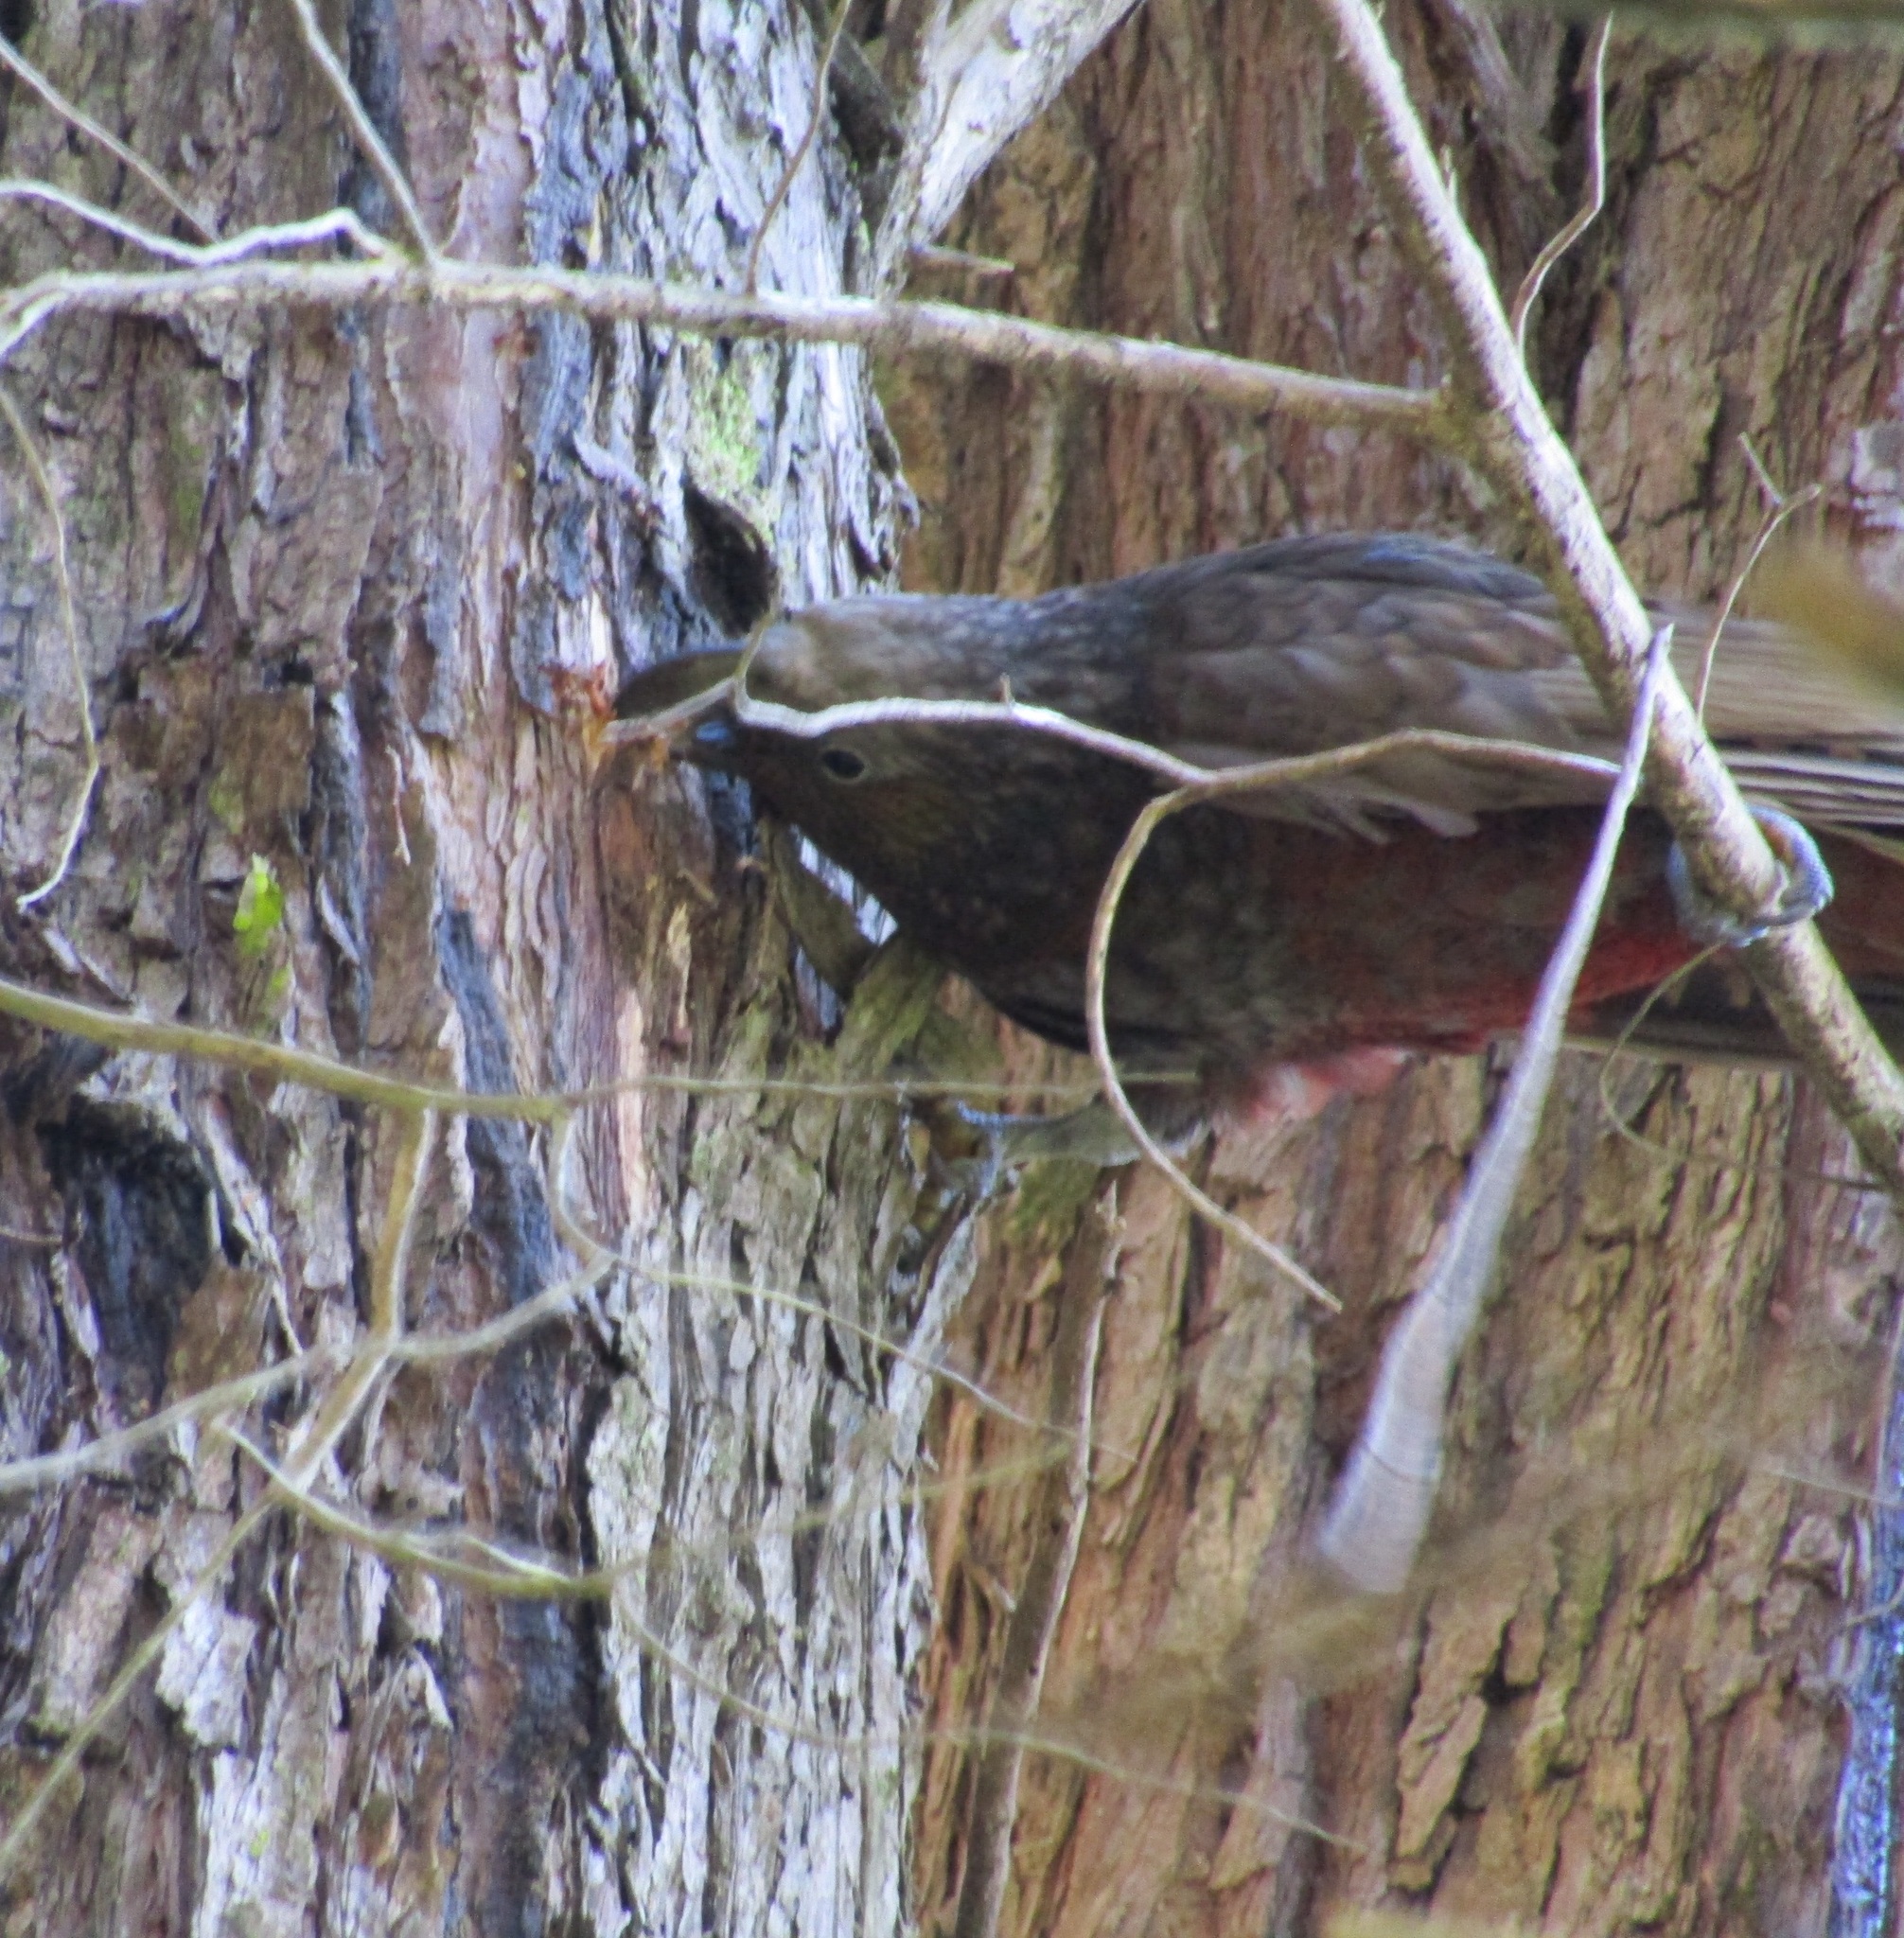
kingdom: Animalia
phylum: Chordata
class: Aves
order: Psittaciformes
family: Psittacidae
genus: Nestor
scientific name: Nestor meridionalis
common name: New zealand kaka
